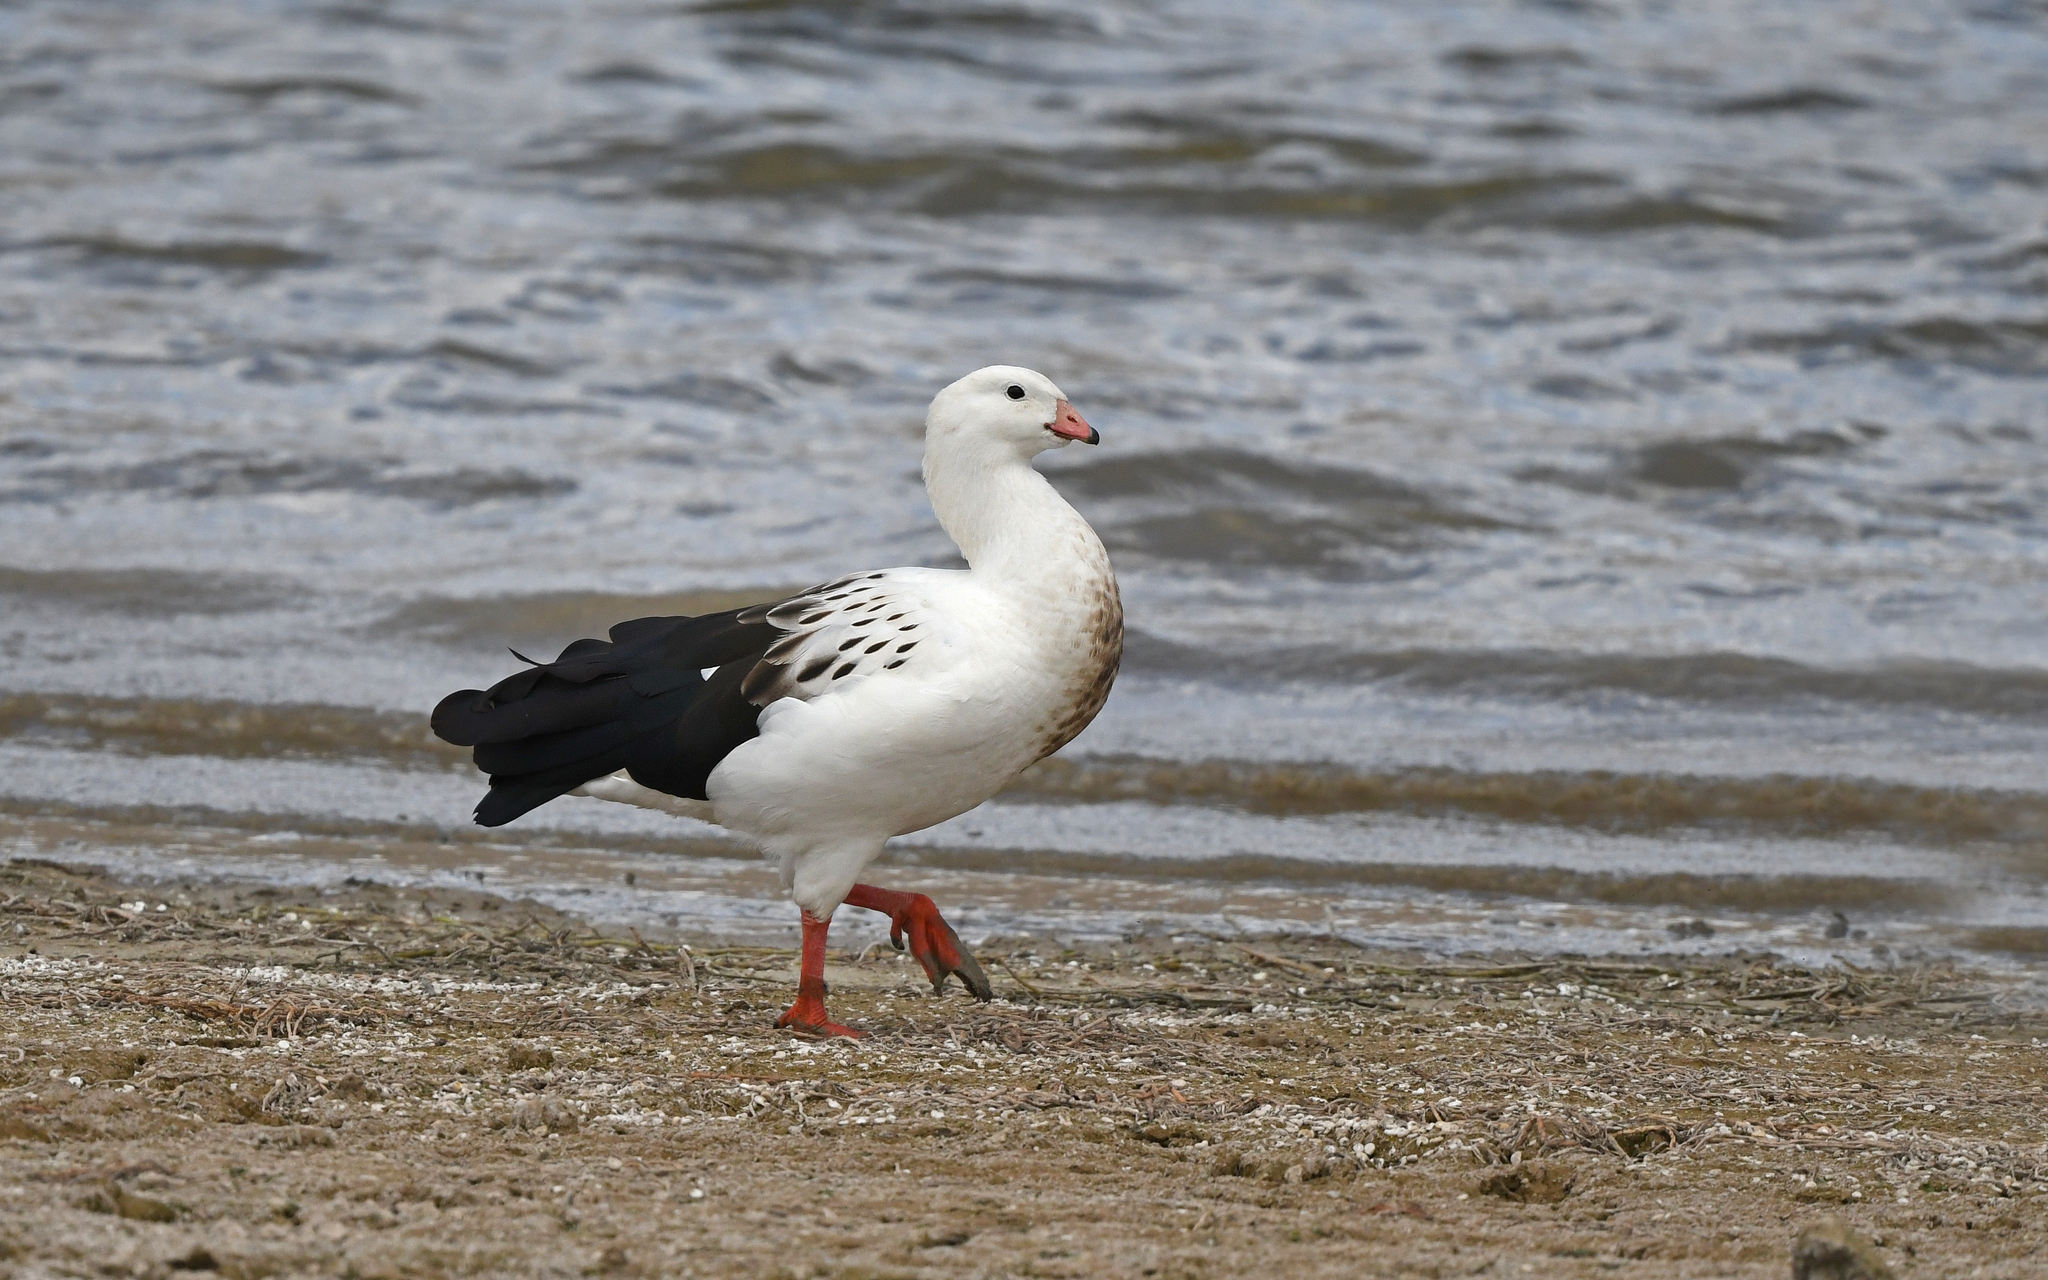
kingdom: Animalia
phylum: Chordata
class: Aves
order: Anseriformes
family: Anatidae
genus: Chloephaga
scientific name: Chloephaga melanoptera
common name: Andean goose
